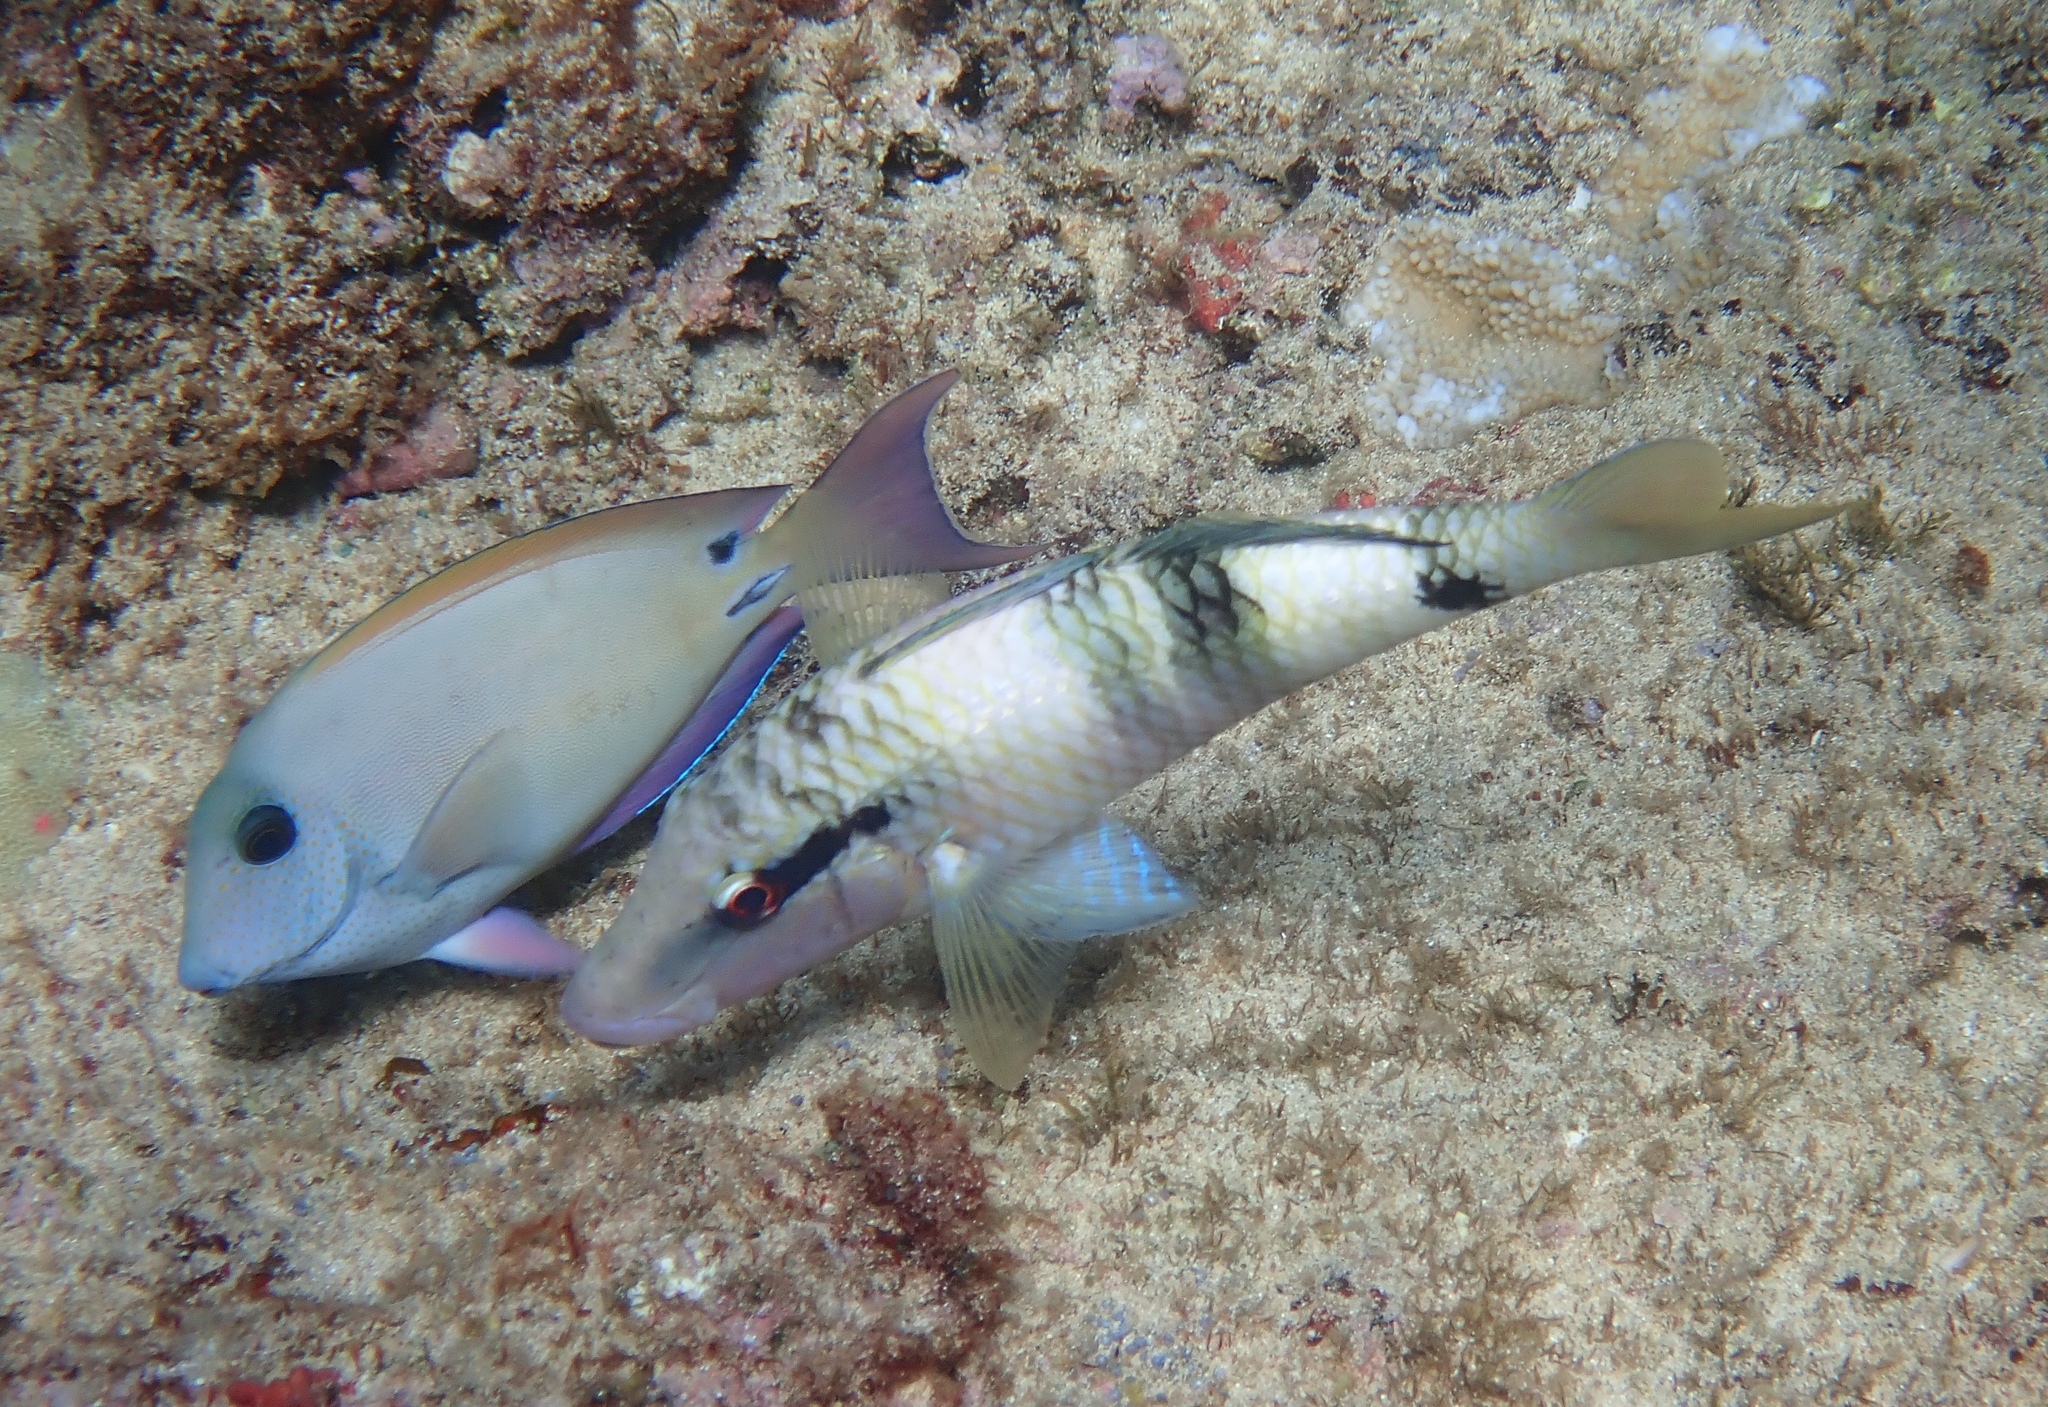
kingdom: Animalia
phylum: Chordata
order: Perciformes
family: Mullidae
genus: Parupeneus
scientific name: Parupeneus multifasciatus
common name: Manybar goatfish
